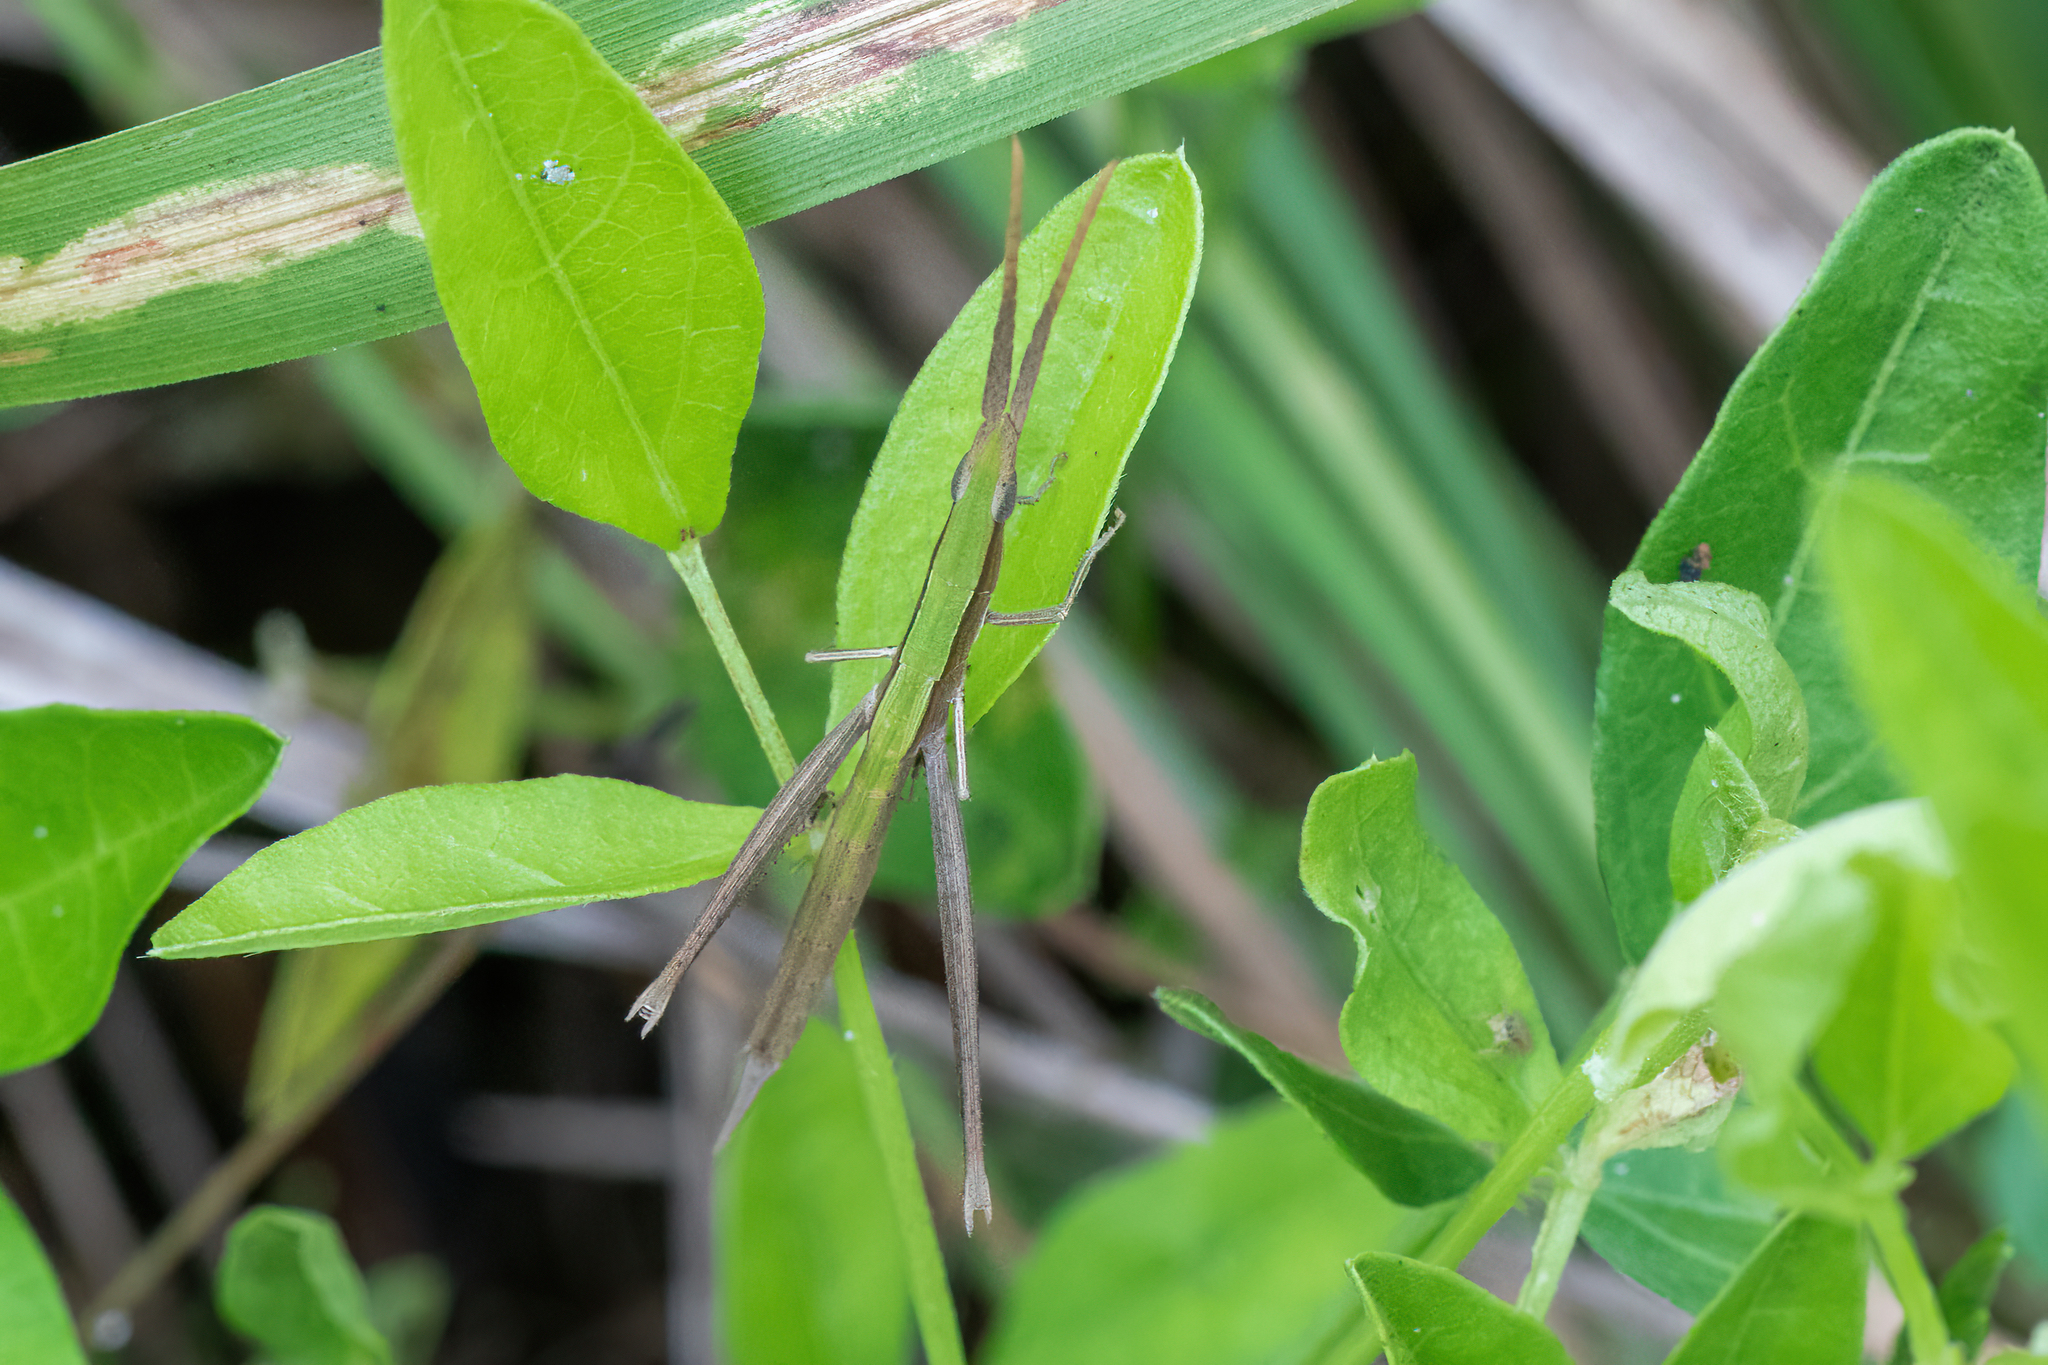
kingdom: Animalia
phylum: Arthropoda
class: Insecta
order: Orthoptera
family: Acrididae
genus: Achurum
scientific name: Achurum carinatum
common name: Long-headed toothpick grasshopper
